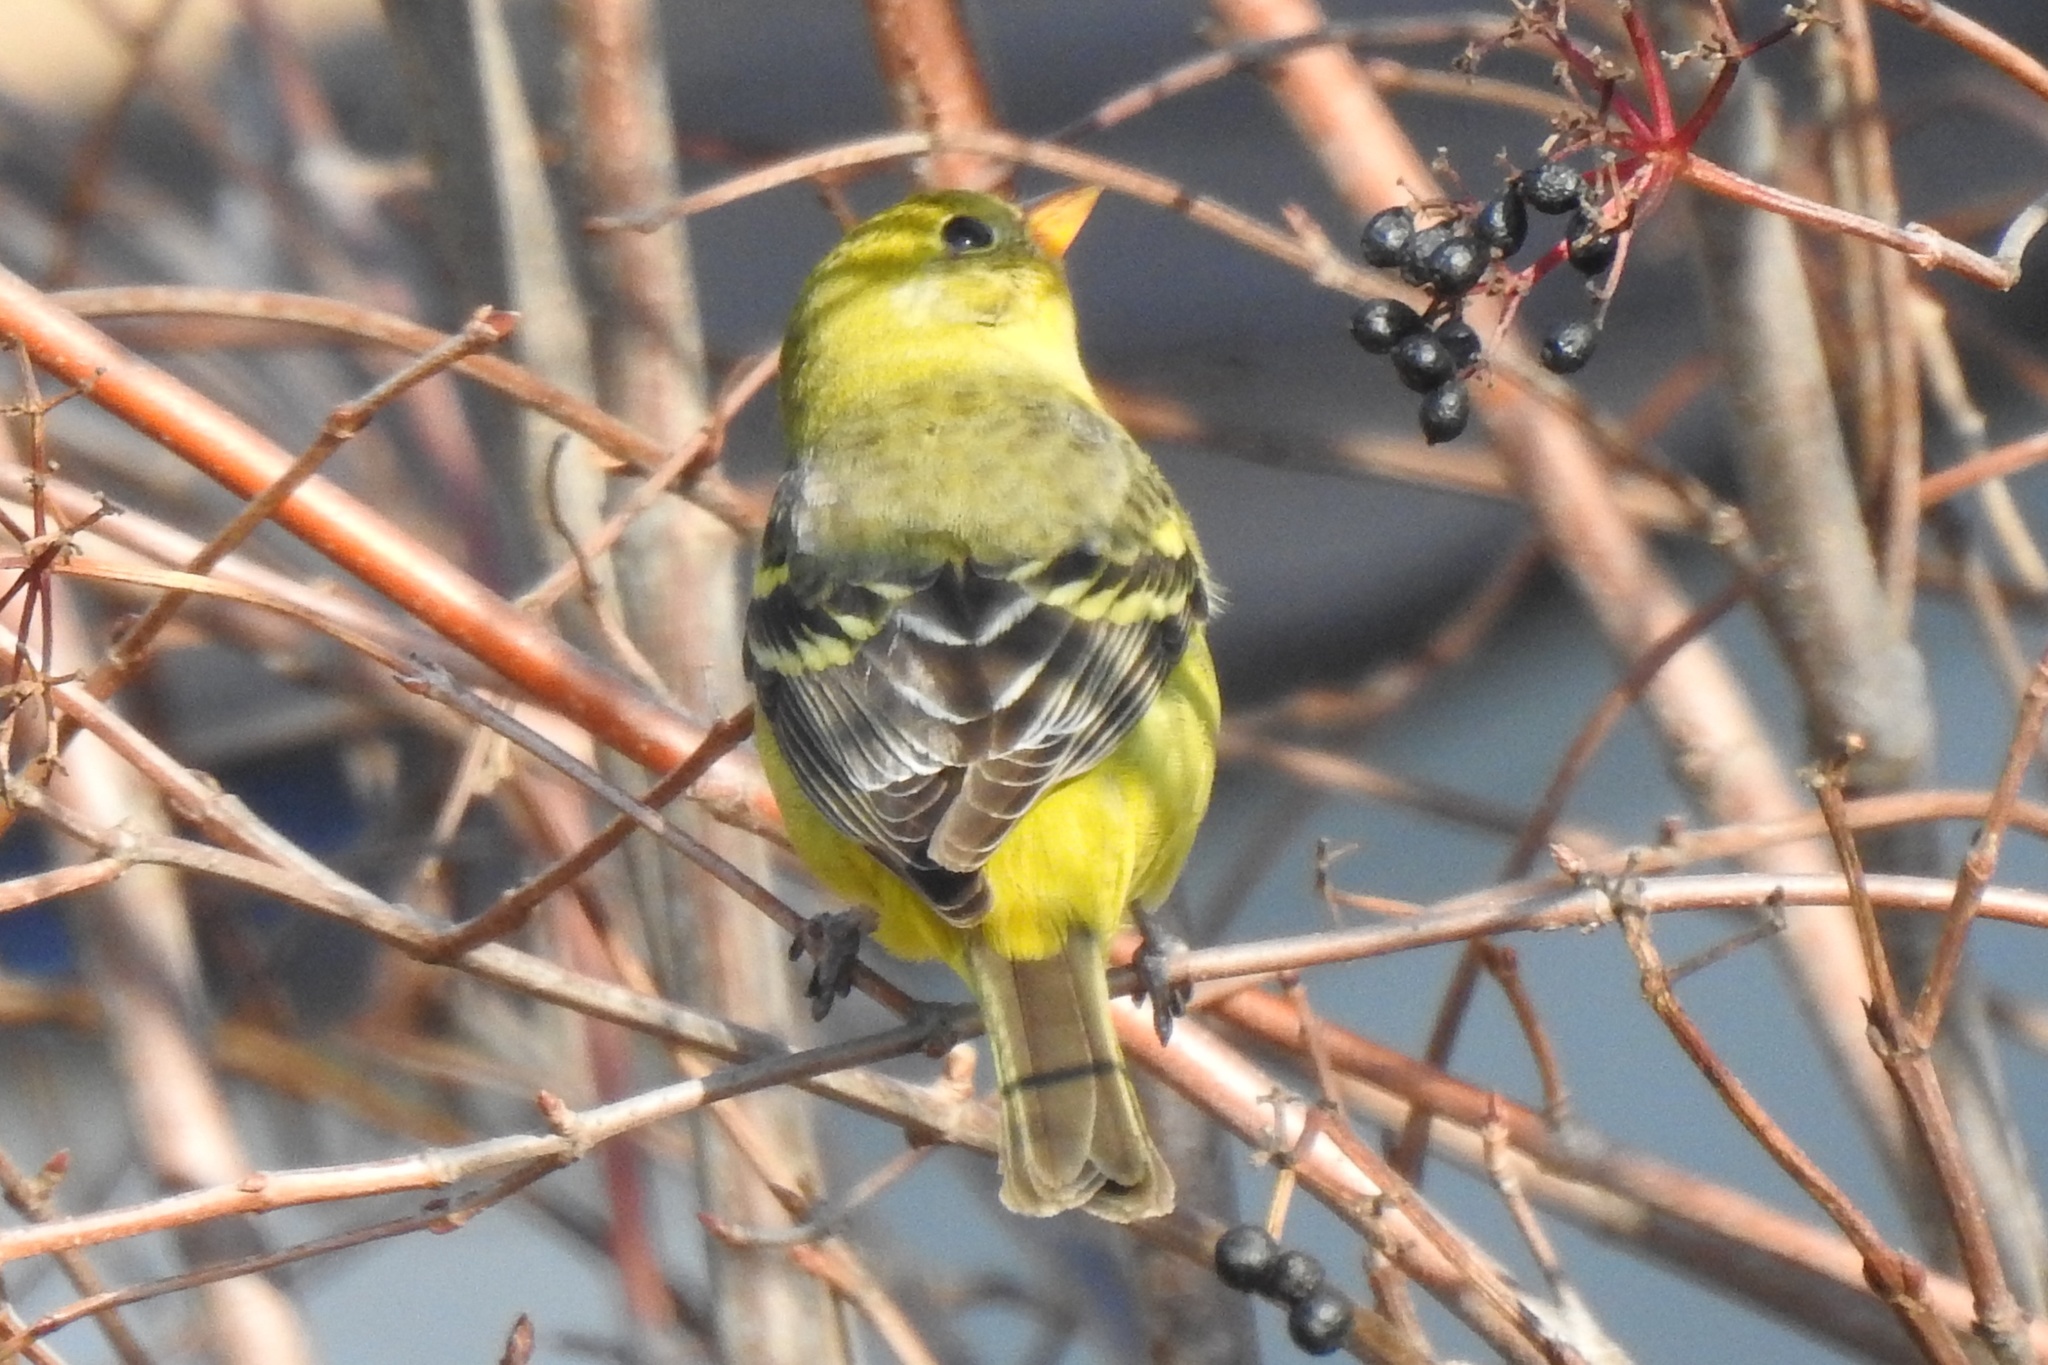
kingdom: Animalia
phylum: Chordata
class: Aves
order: Passeriformes
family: Cardinalidae
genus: Piranga
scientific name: Piranga ludoviciana
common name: Western tanager
